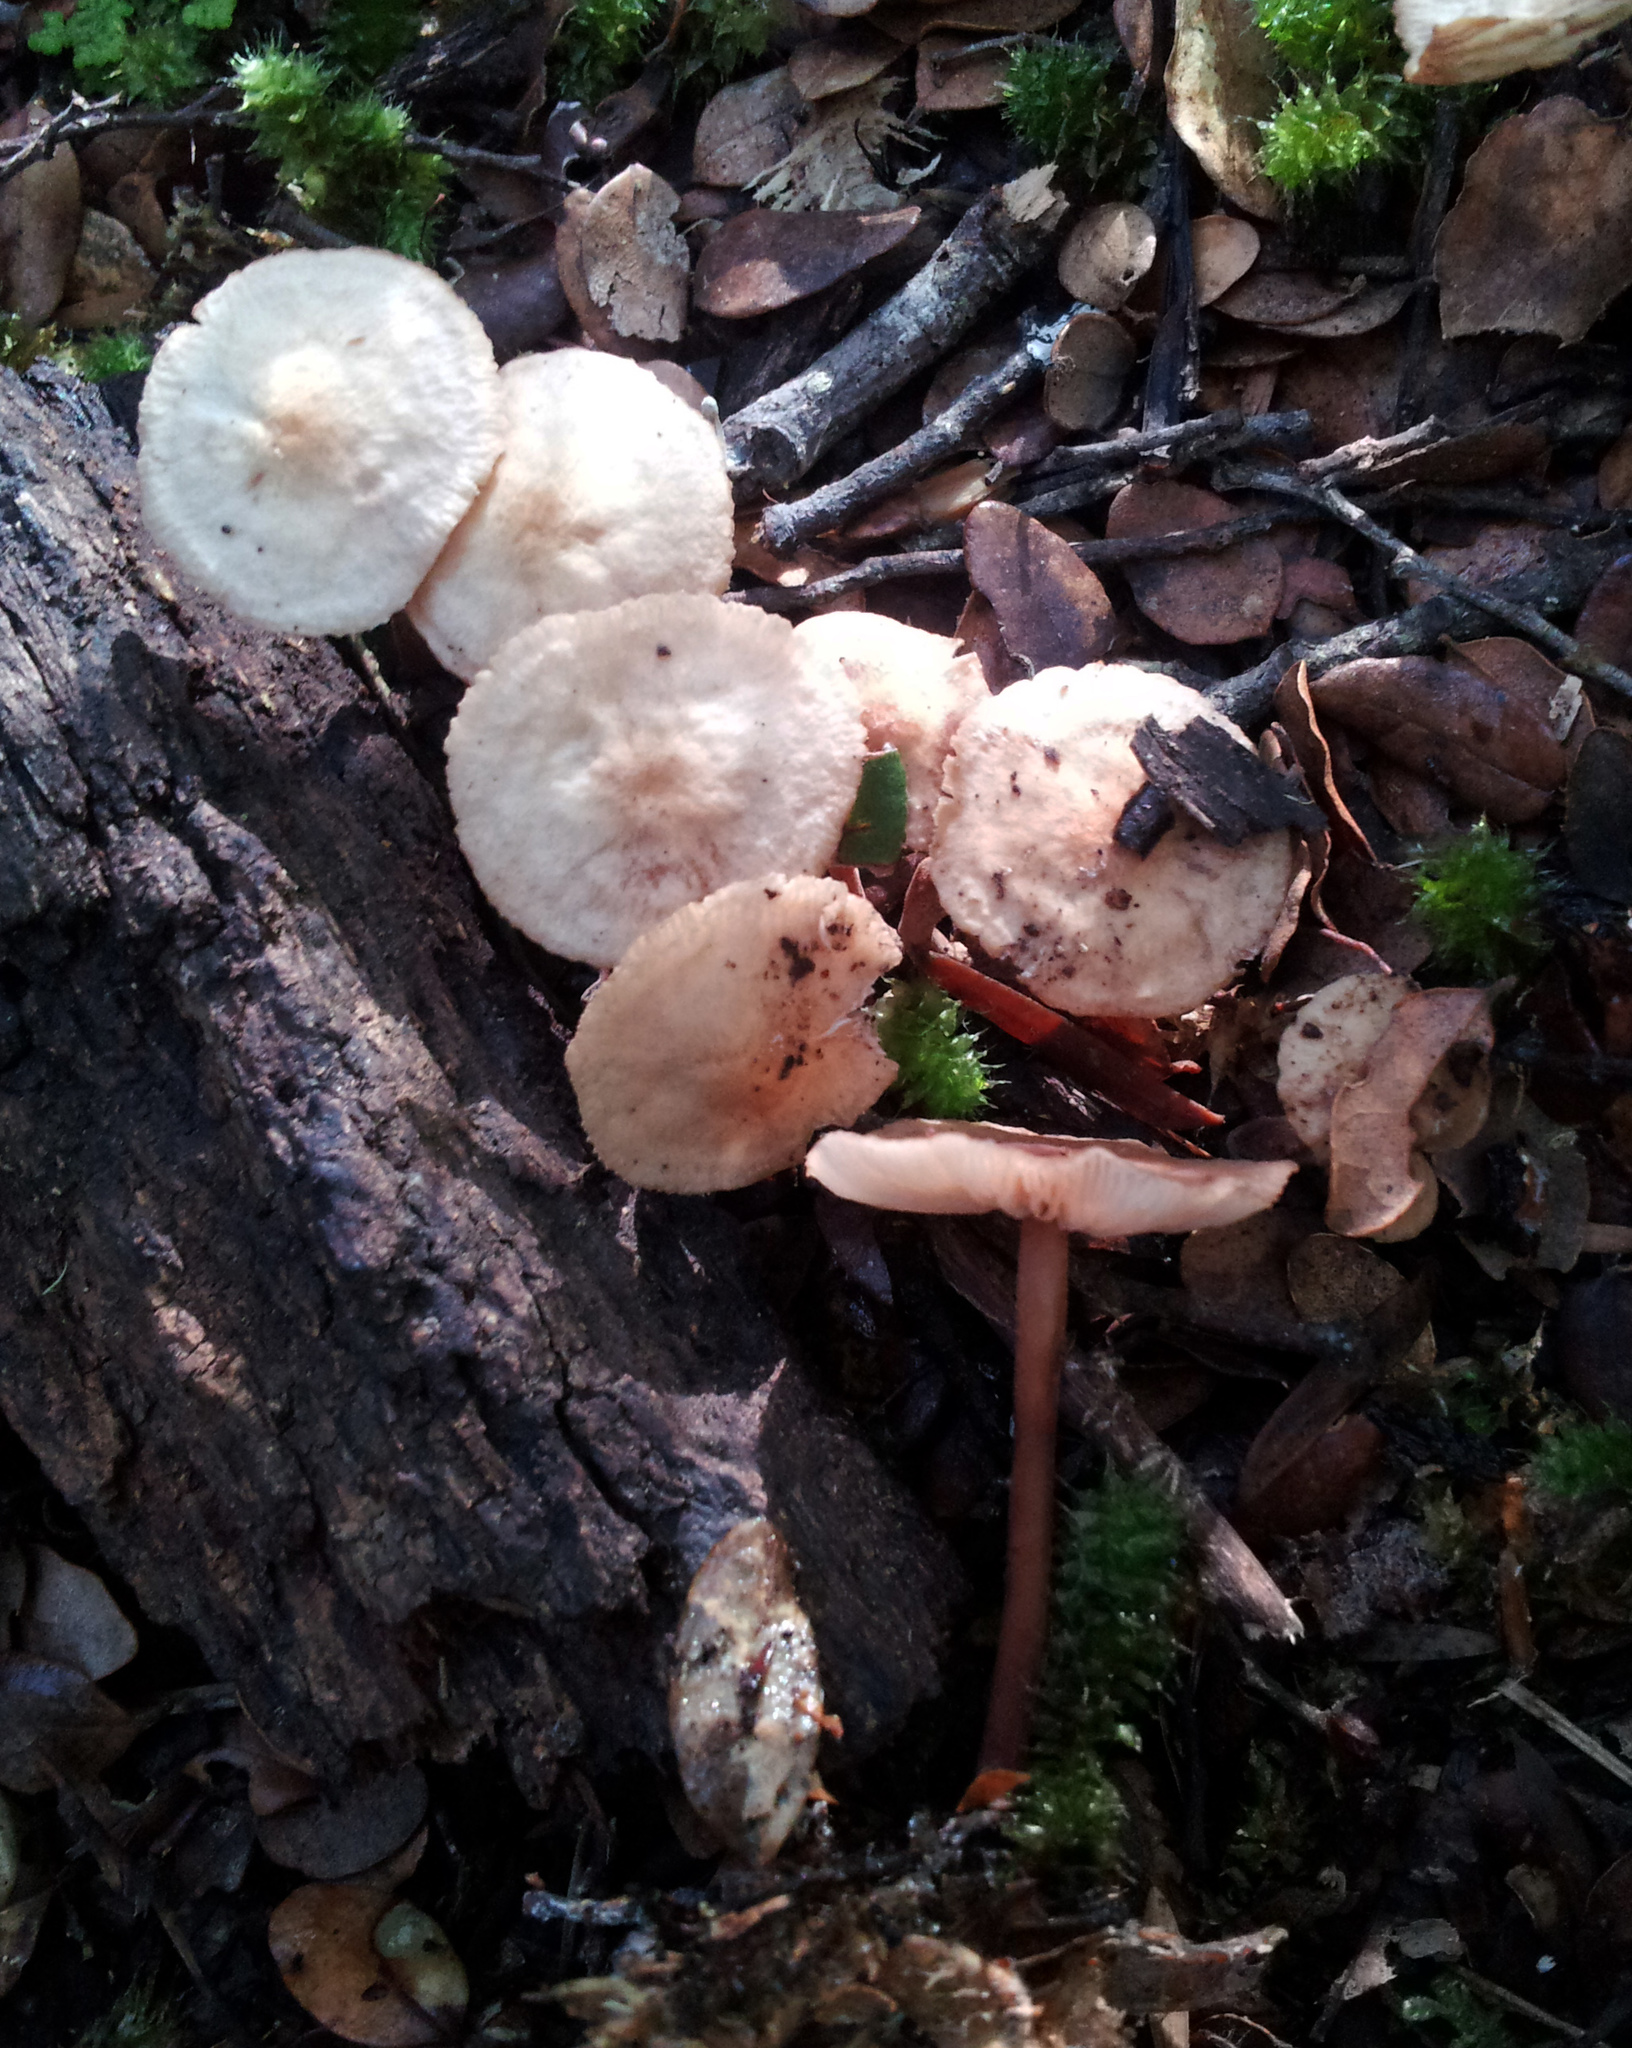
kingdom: Fungi
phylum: Basidiomycota
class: Agaricomycetes
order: Agaricales
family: Omphalotaceae
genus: Gymnopus
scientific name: Gymnopus cockaynei
